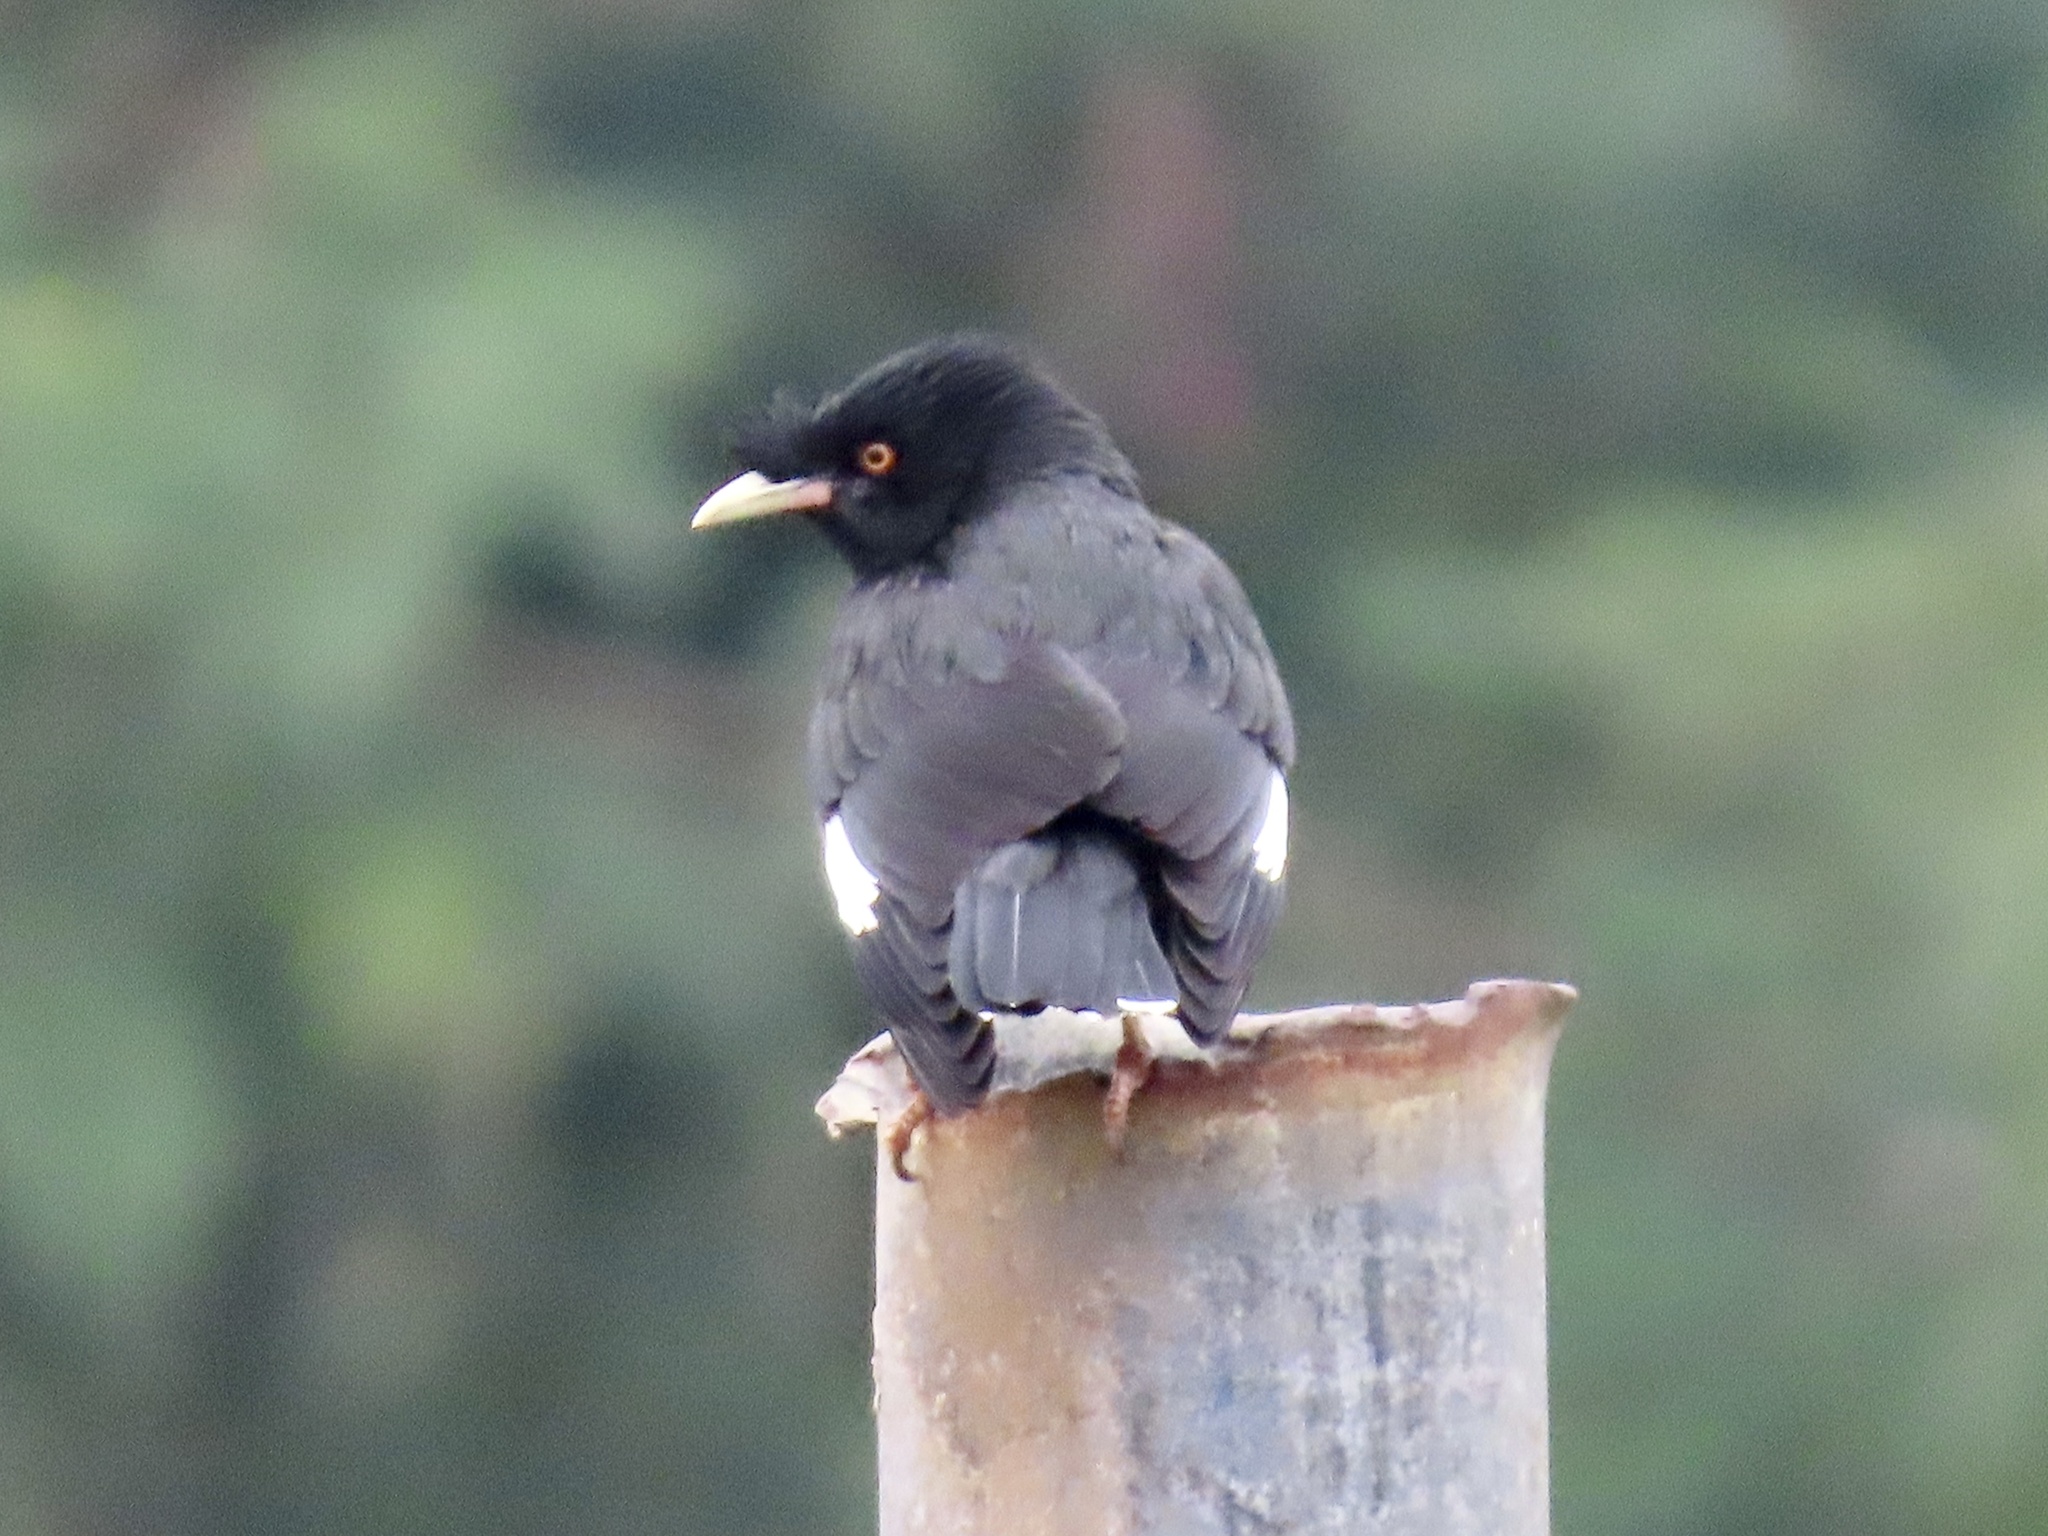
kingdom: Animalia
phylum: Chordata
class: Aves
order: Passeriformes
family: Sturnidae
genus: Acridotheres
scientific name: Acridotheres cristatellus
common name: Crested myna
